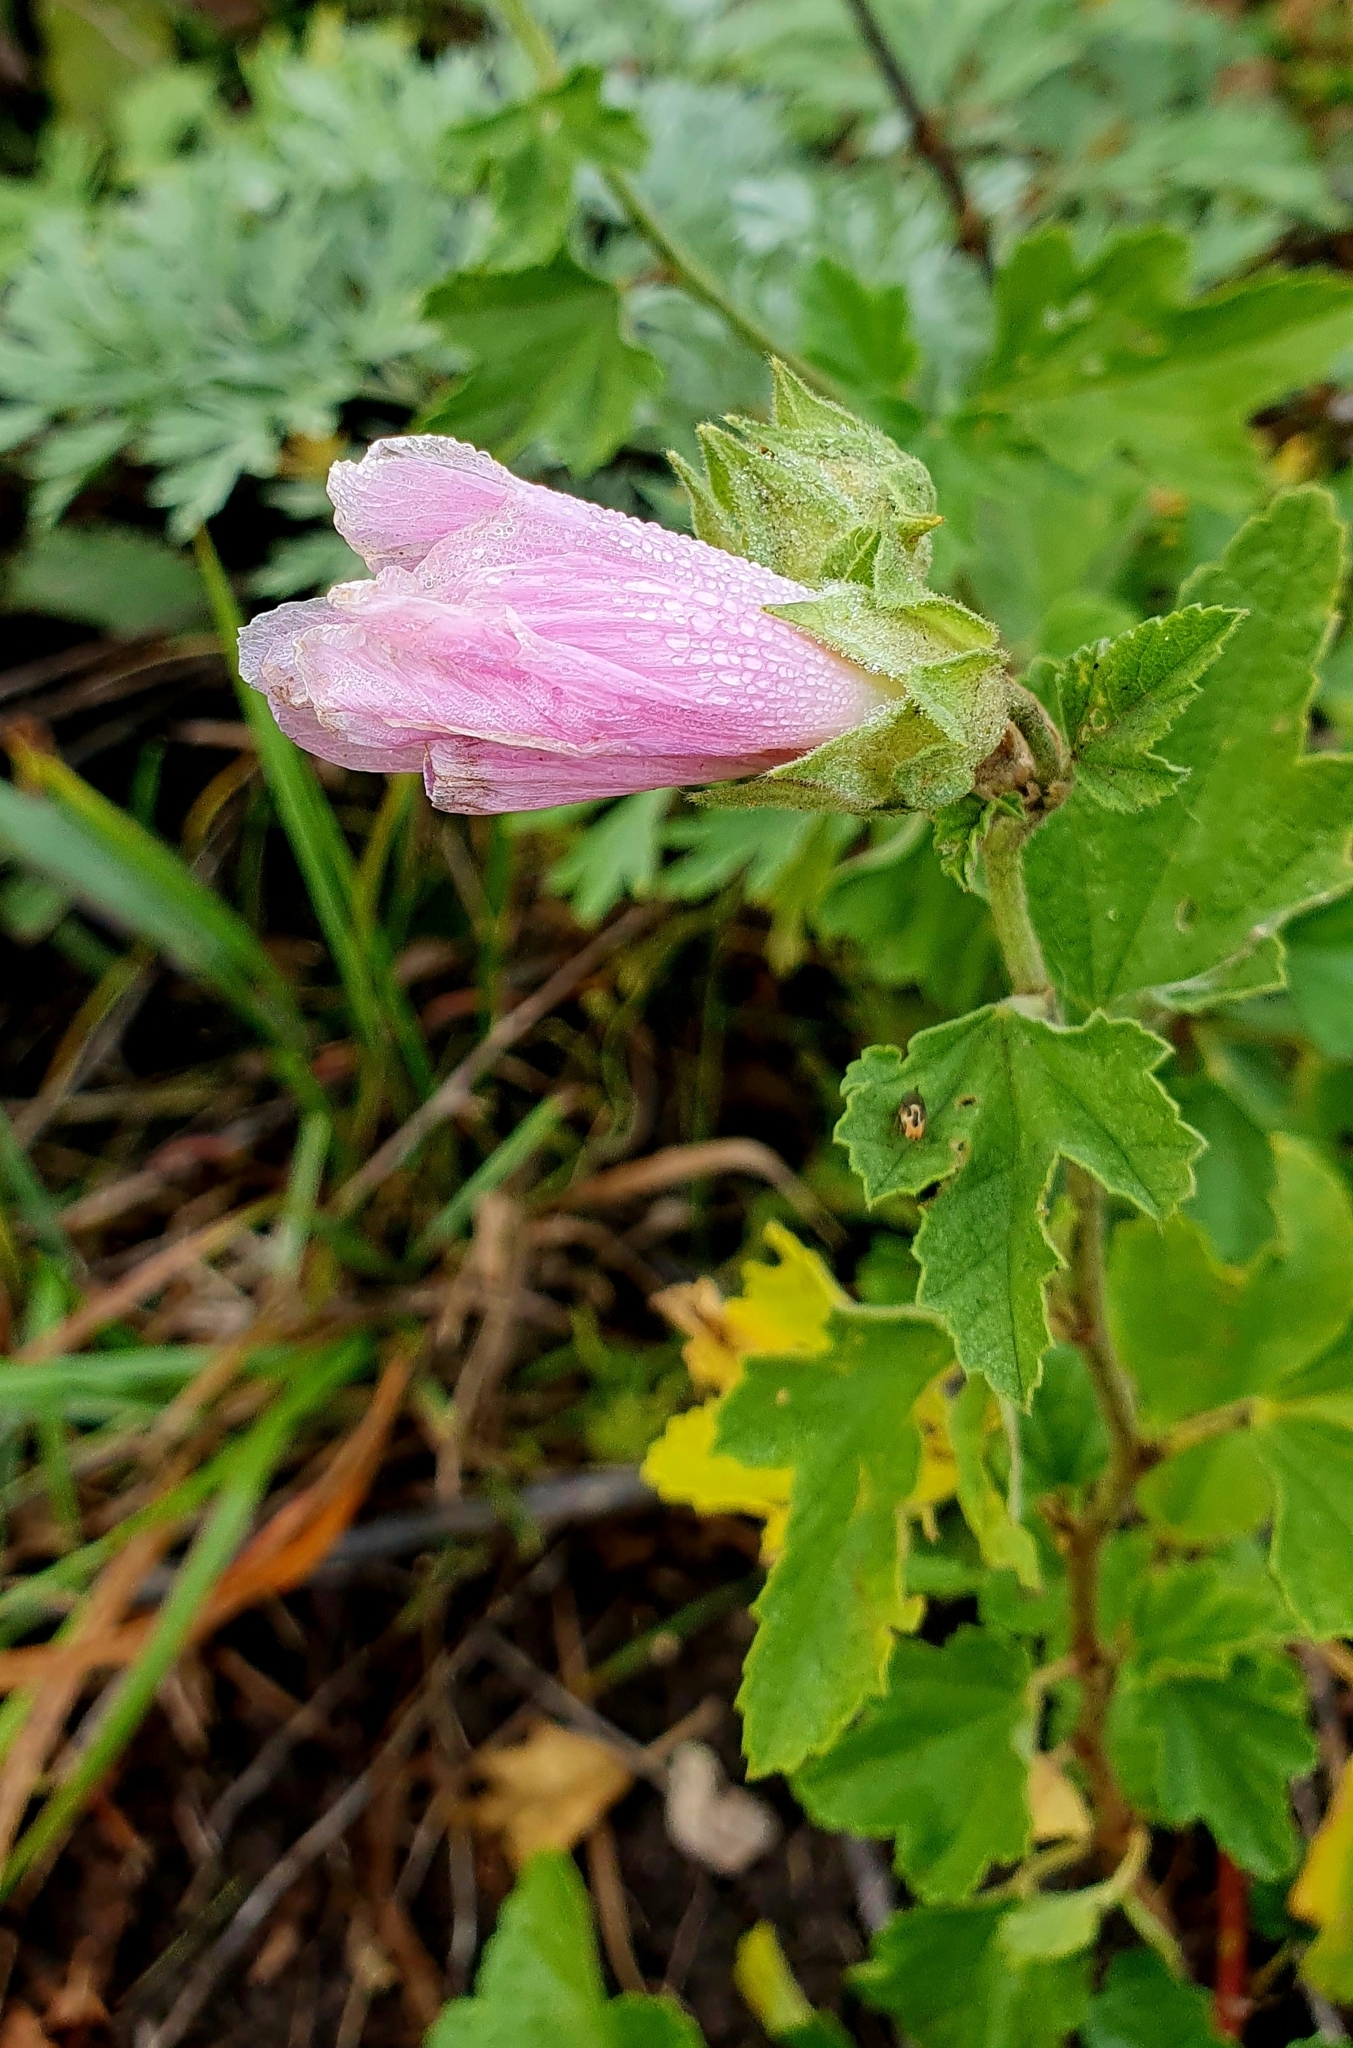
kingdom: Plantae
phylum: Tracheophyta
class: Magnoliopsida
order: Malvales
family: Malvaceae
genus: Malva
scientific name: Malva thuringiaca
